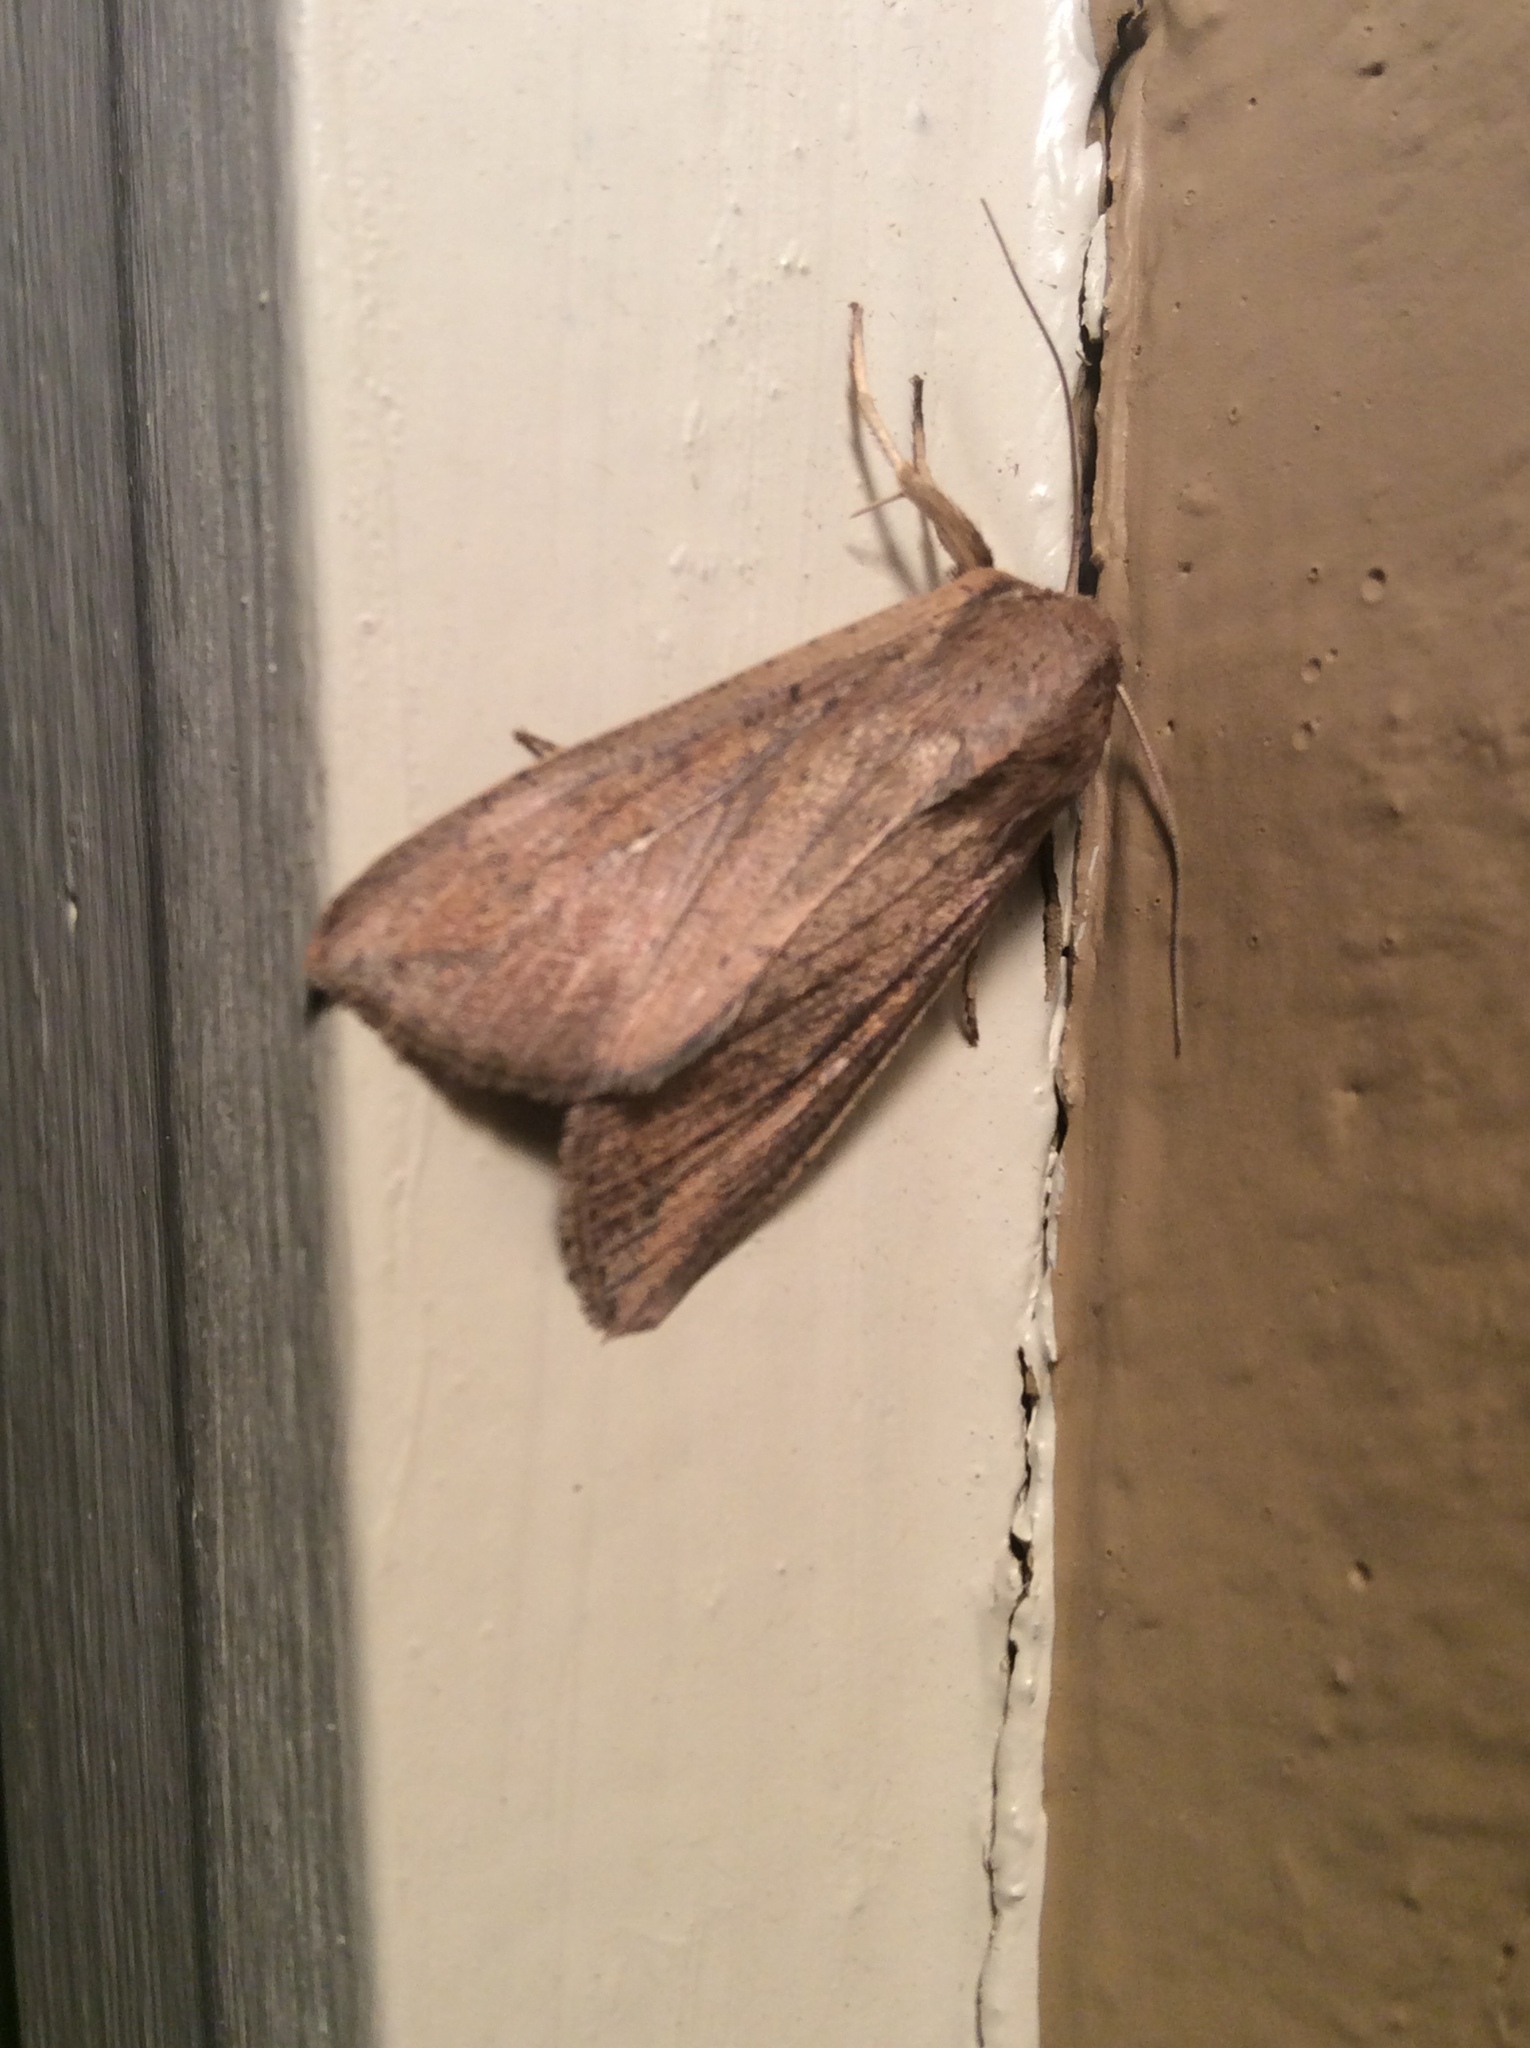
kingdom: Animalia
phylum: Arthropoda
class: Insecta
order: Lepidoptera
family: Noctuidae
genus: Mythimna
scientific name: Mythimna unipuncta
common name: White-speck
